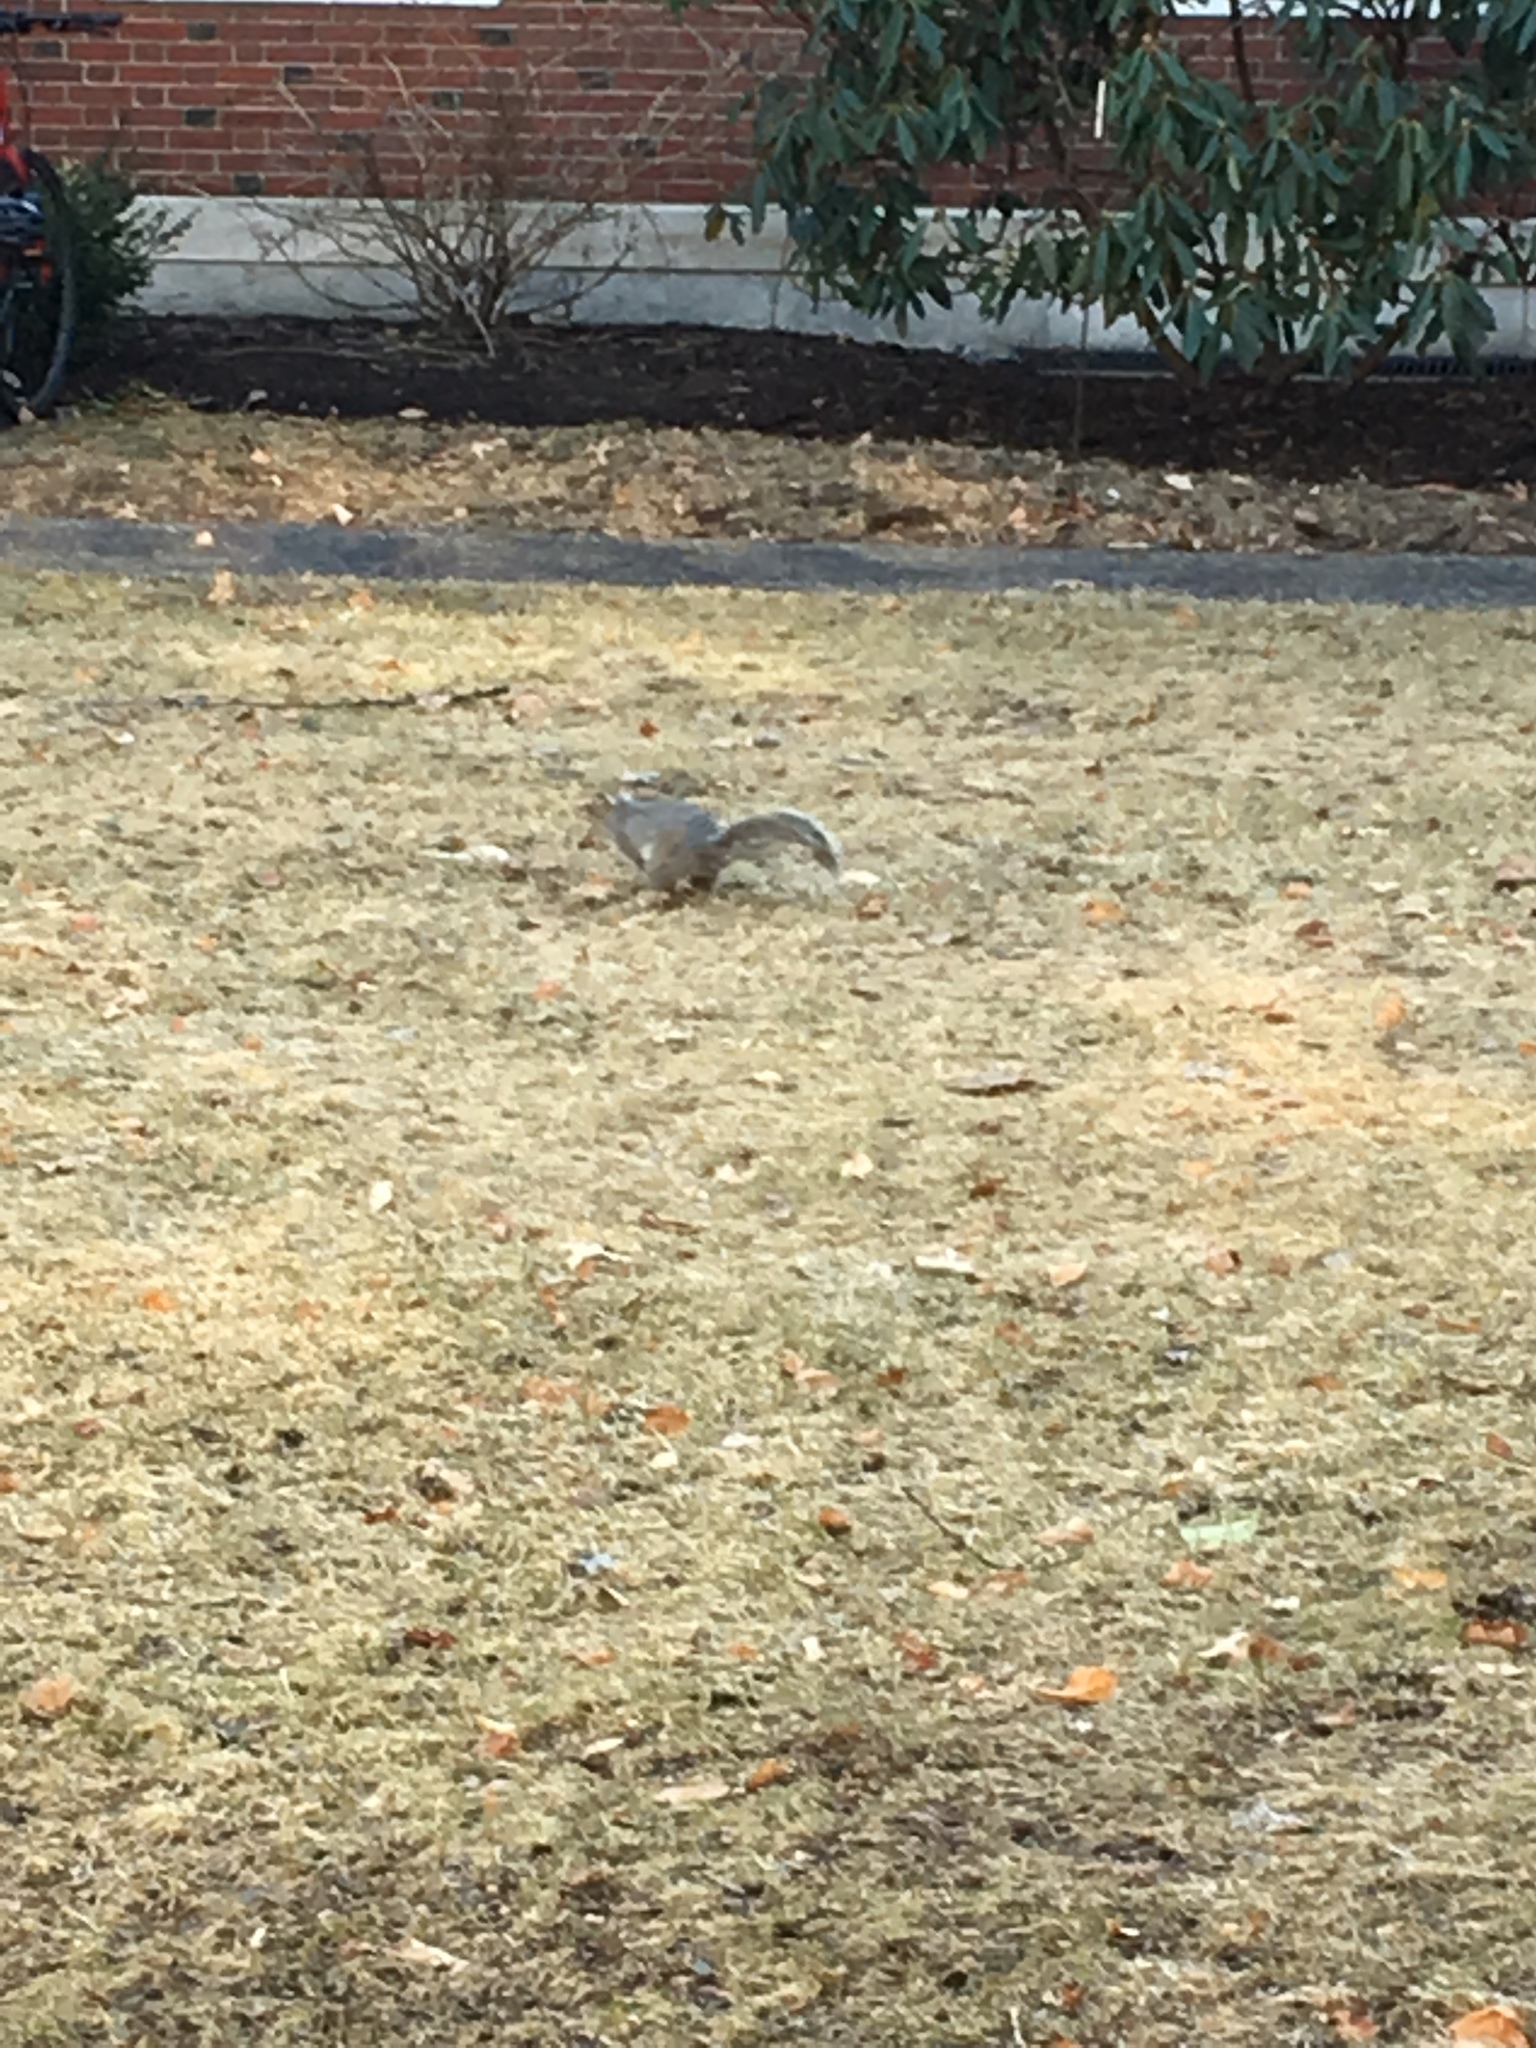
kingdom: Animalia
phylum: Chordata
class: Mammalia
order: Rodentia
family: Sciuridae
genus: Sciurus
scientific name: Sciurus carolinensis
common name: Eastern gray squirrel
